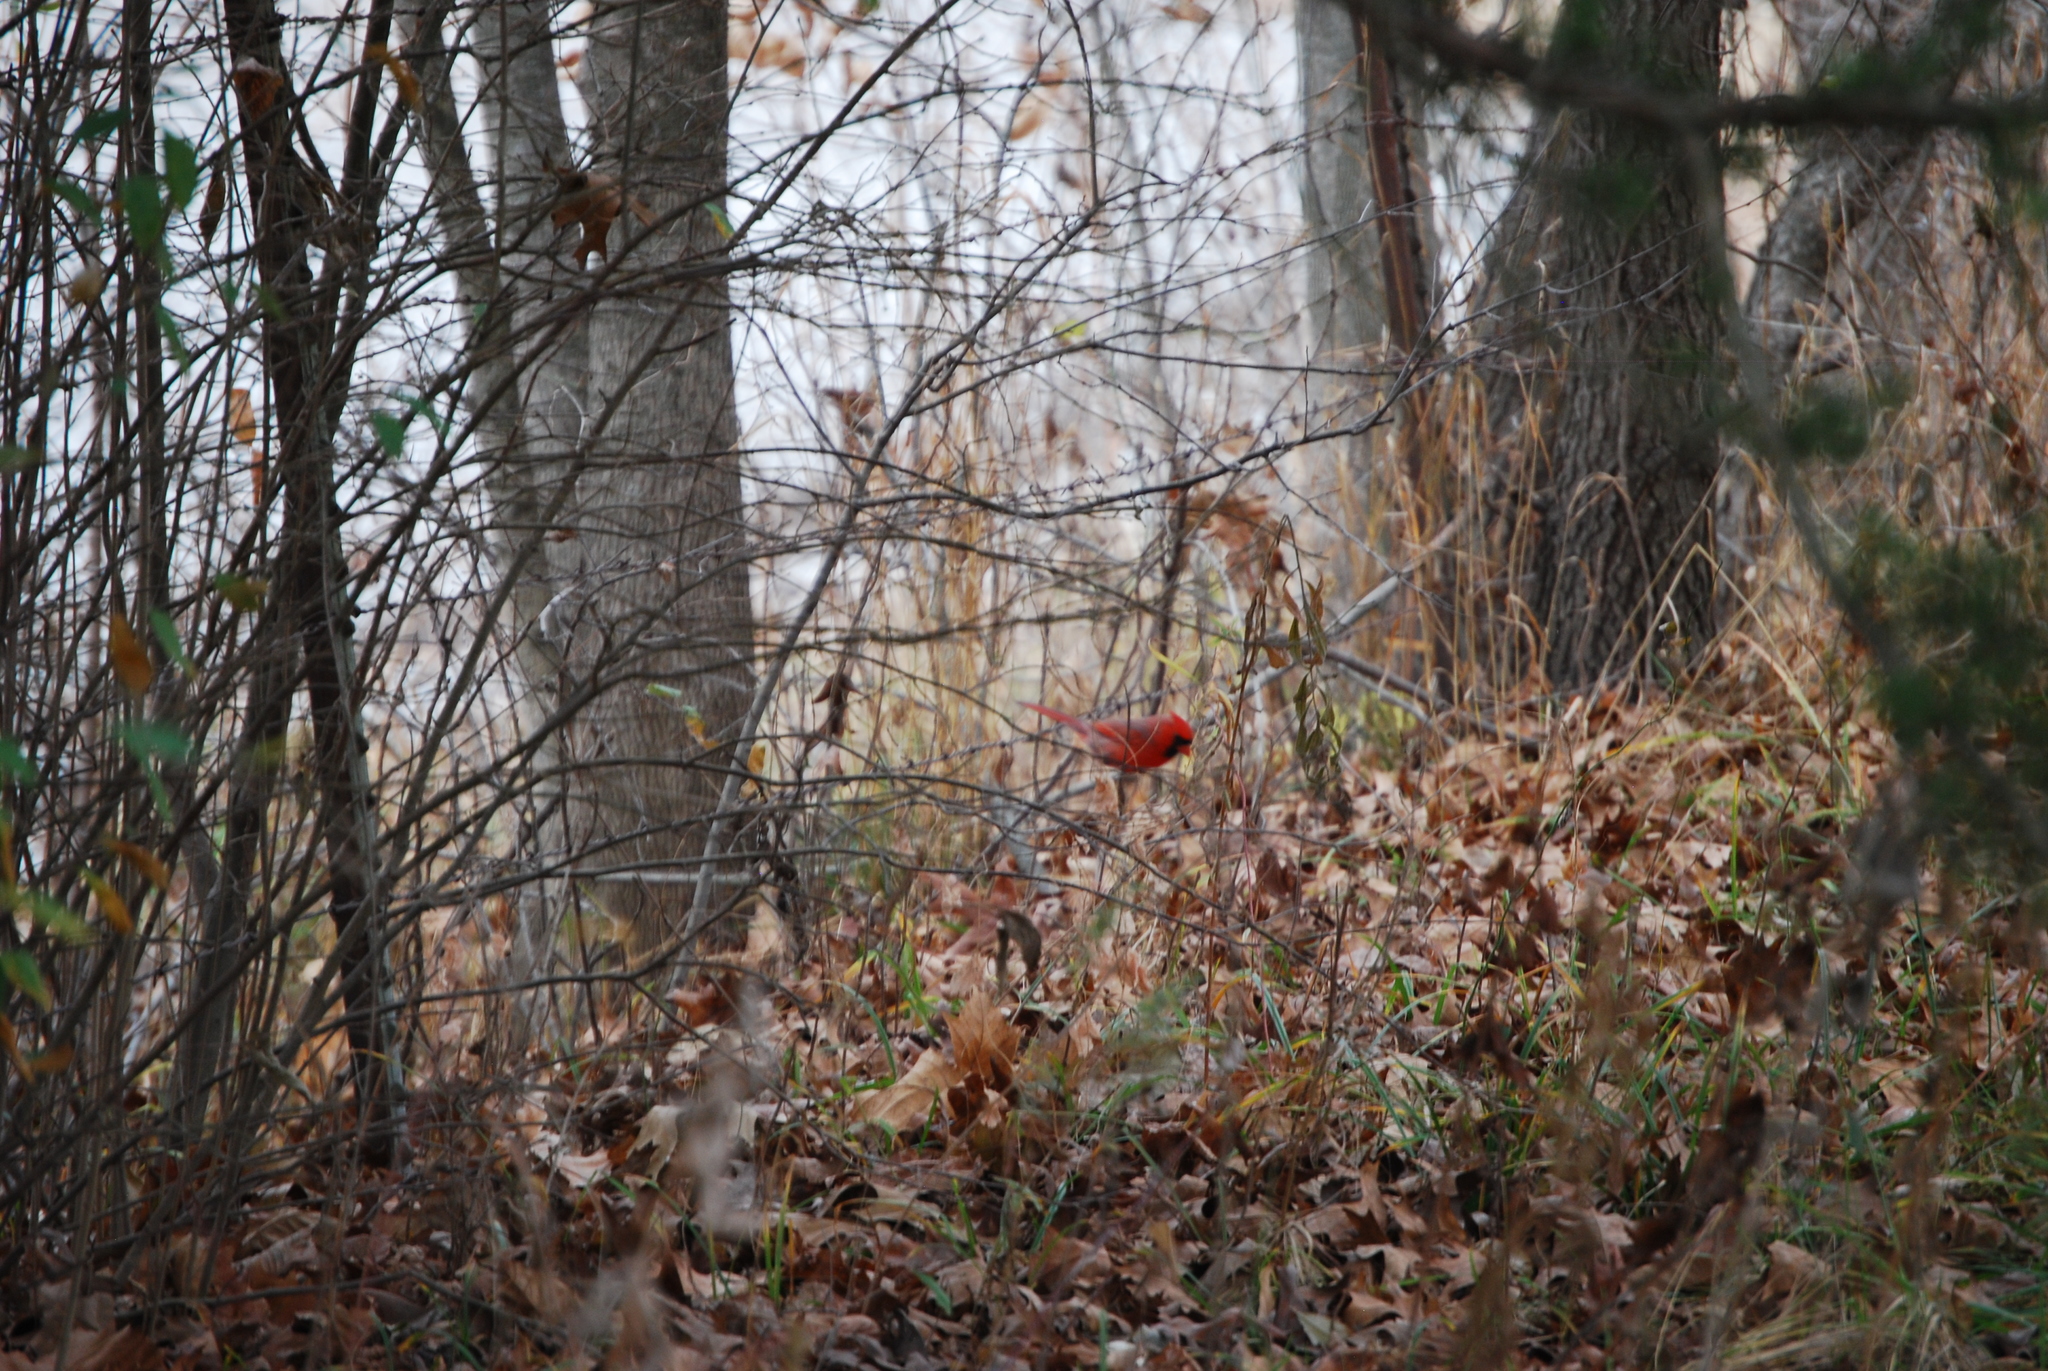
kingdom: Animalia
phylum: Chordata
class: Aves
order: Passeriformes
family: Cardinalidae
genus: Cardinalis
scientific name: Cardinalis cardinalis
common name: Northern cardinal
